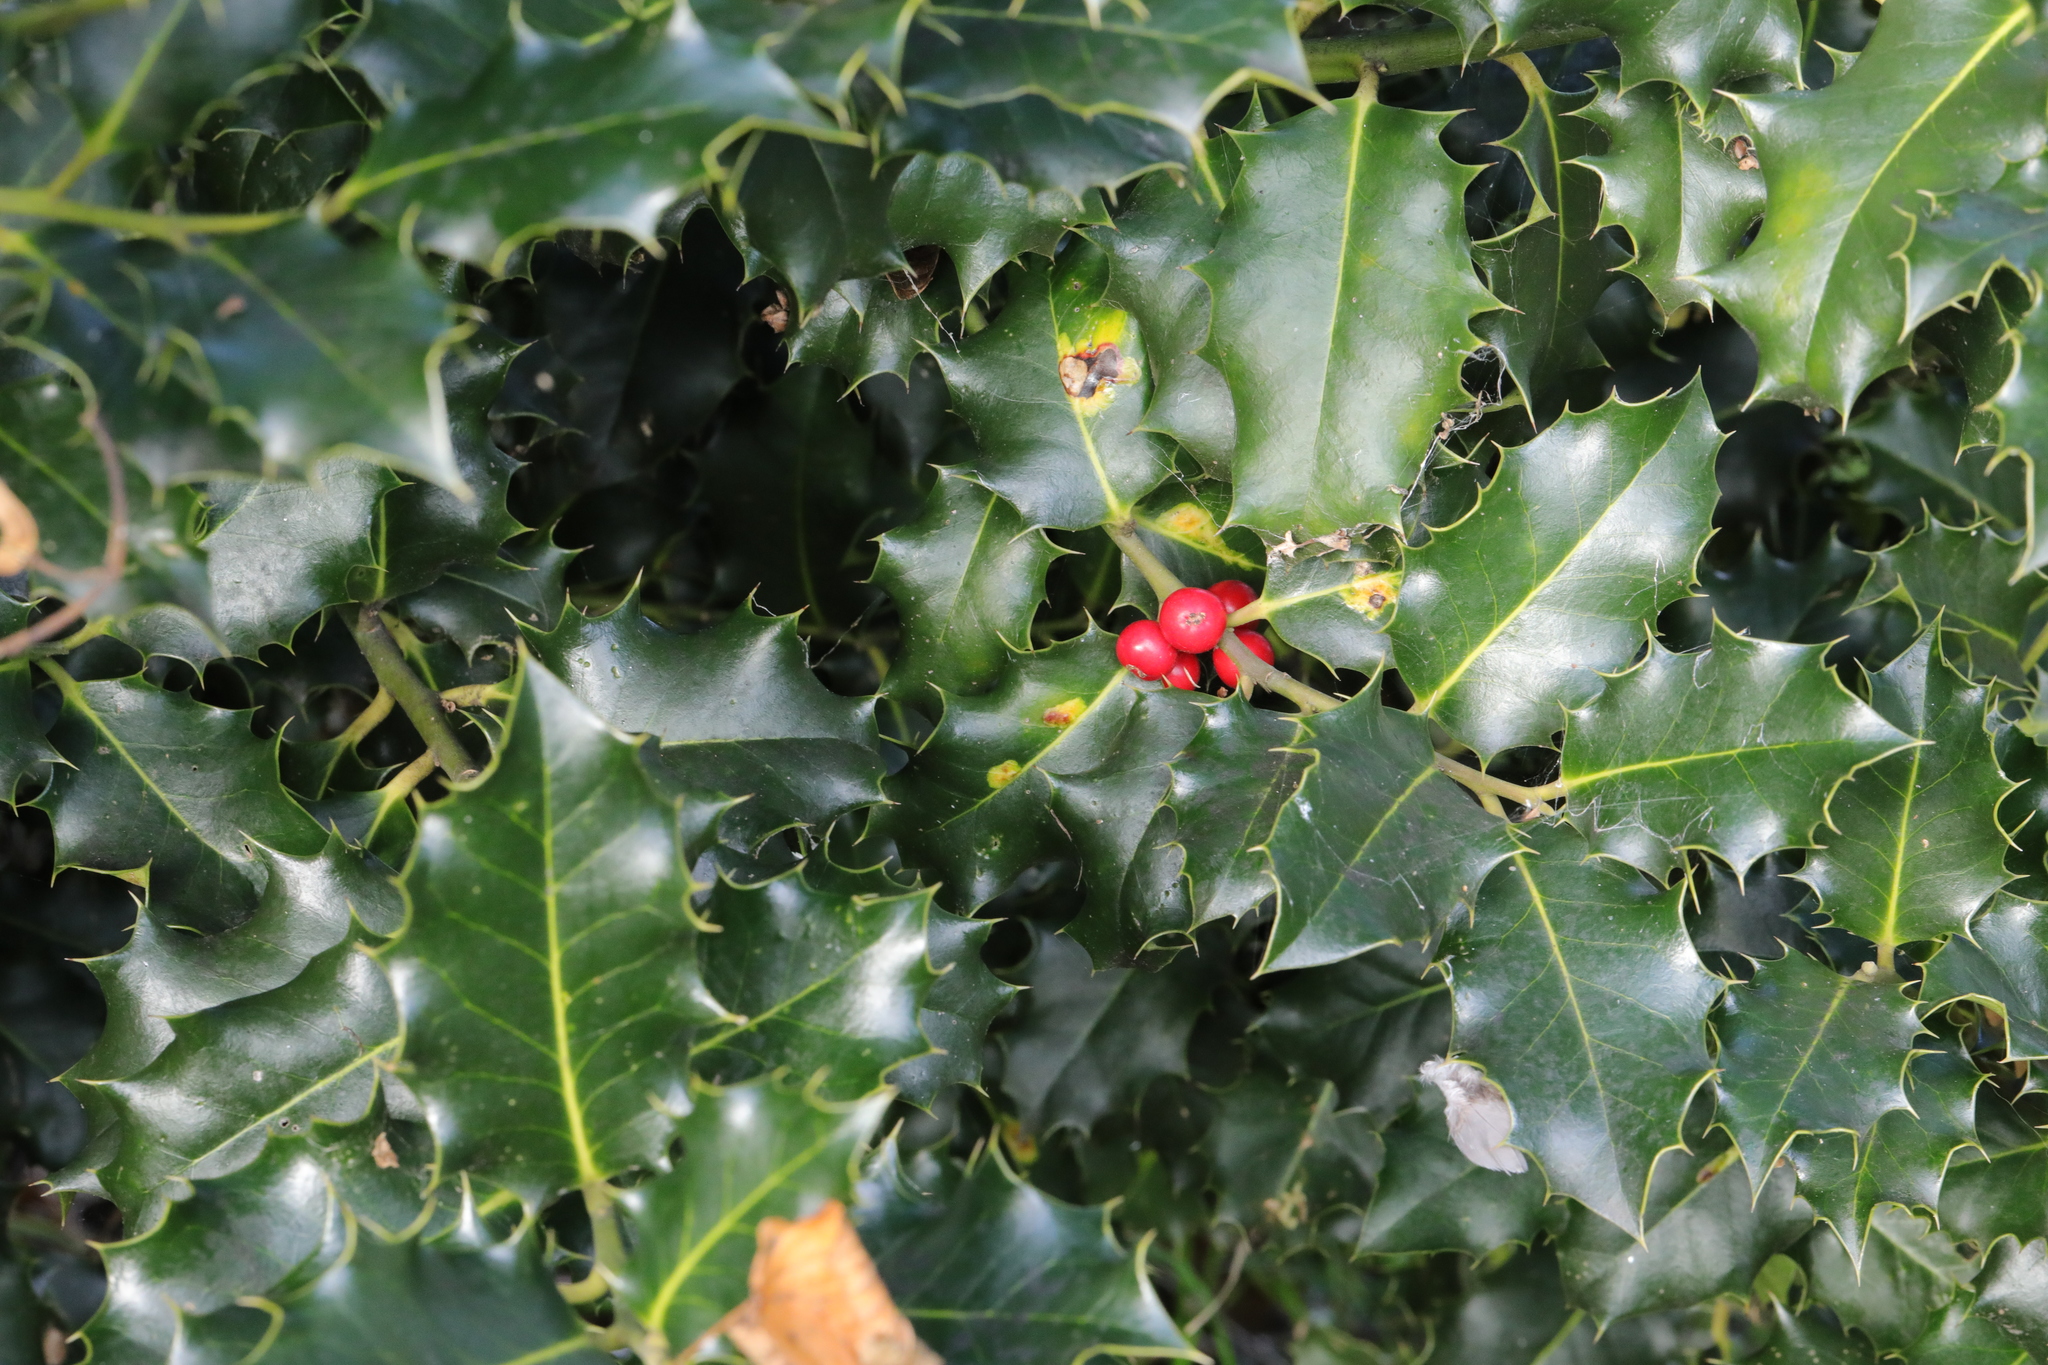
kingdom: Plantae
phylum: Tracheophyta
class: Magnoliopsida
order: Aquifoliales
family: Aquifoliaceae
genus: Ilex
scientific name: Ilex aquifolium
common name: English holly
